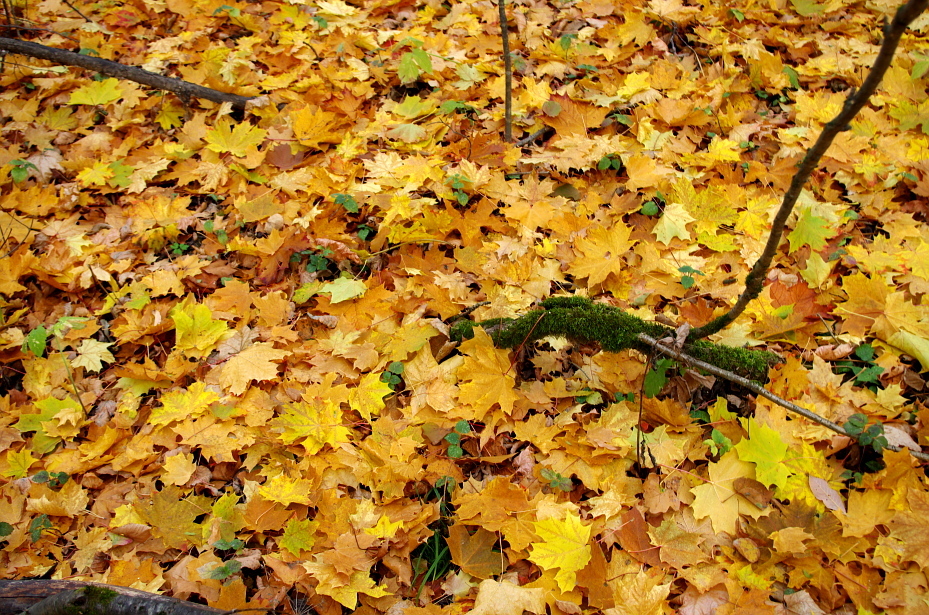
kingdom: Plantae
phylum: Tracheophyta
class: Magnoliopsida
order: Sapindales
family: Sapindaceae
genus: Acer
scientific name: Acer platanoides
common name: Norway maple
